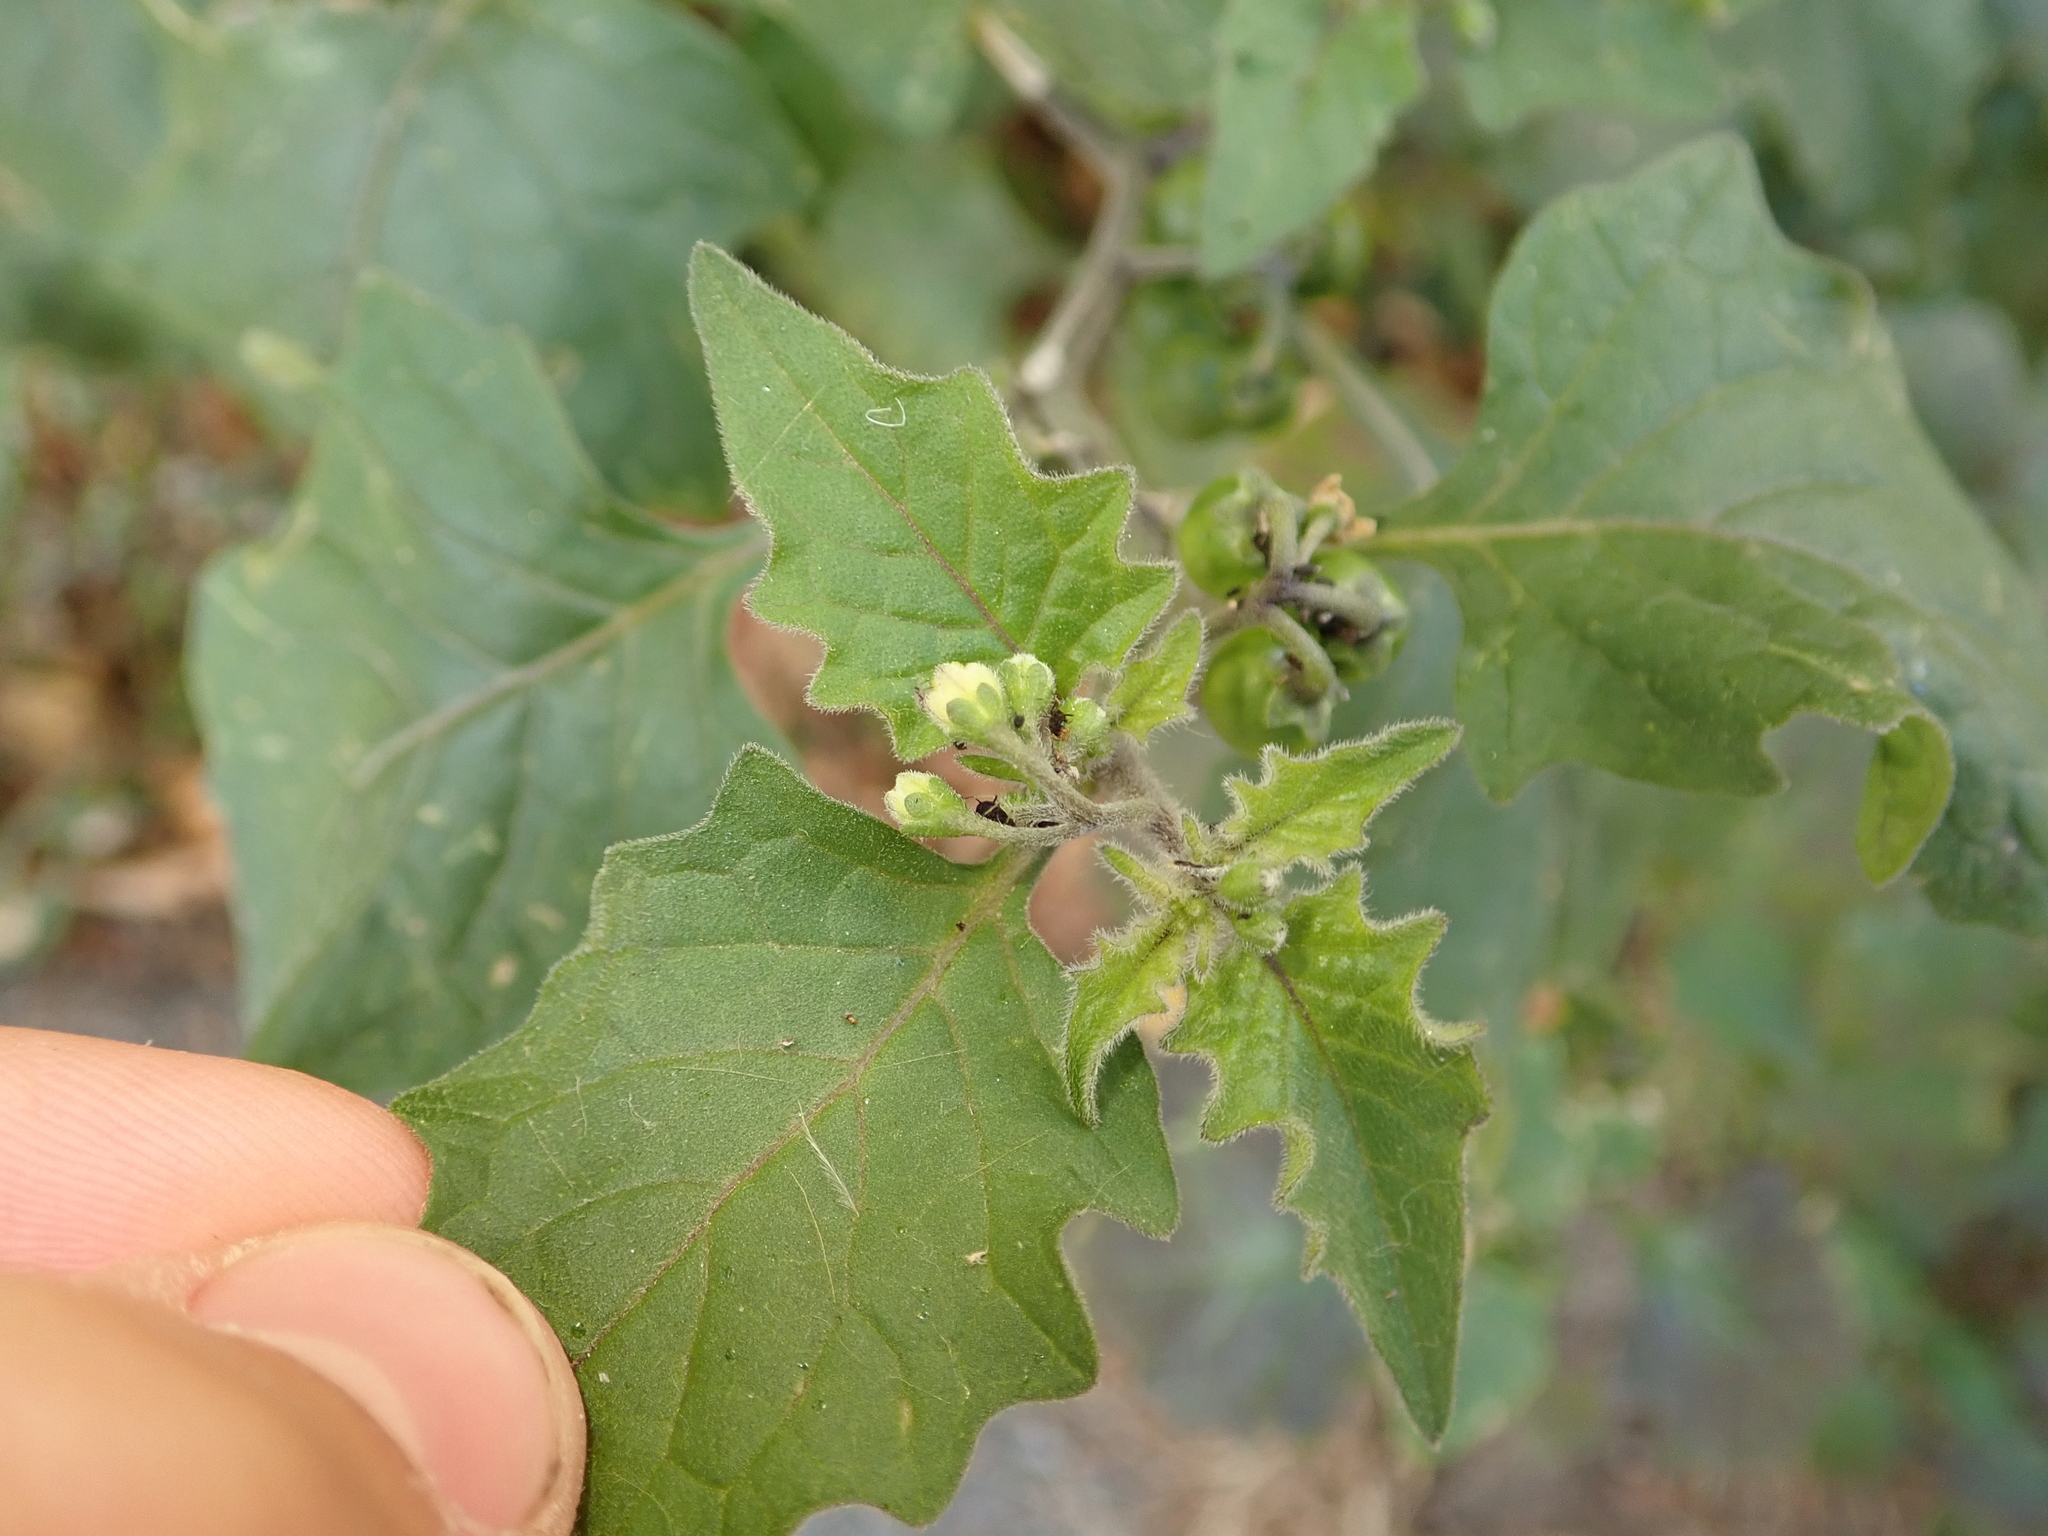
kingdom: Plantae
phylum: Tracheophyta
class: Magnoliopsida
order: Solanales
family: Solanaceae
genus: Solanum
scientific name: Solanum nigrum
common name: Black nightshade
